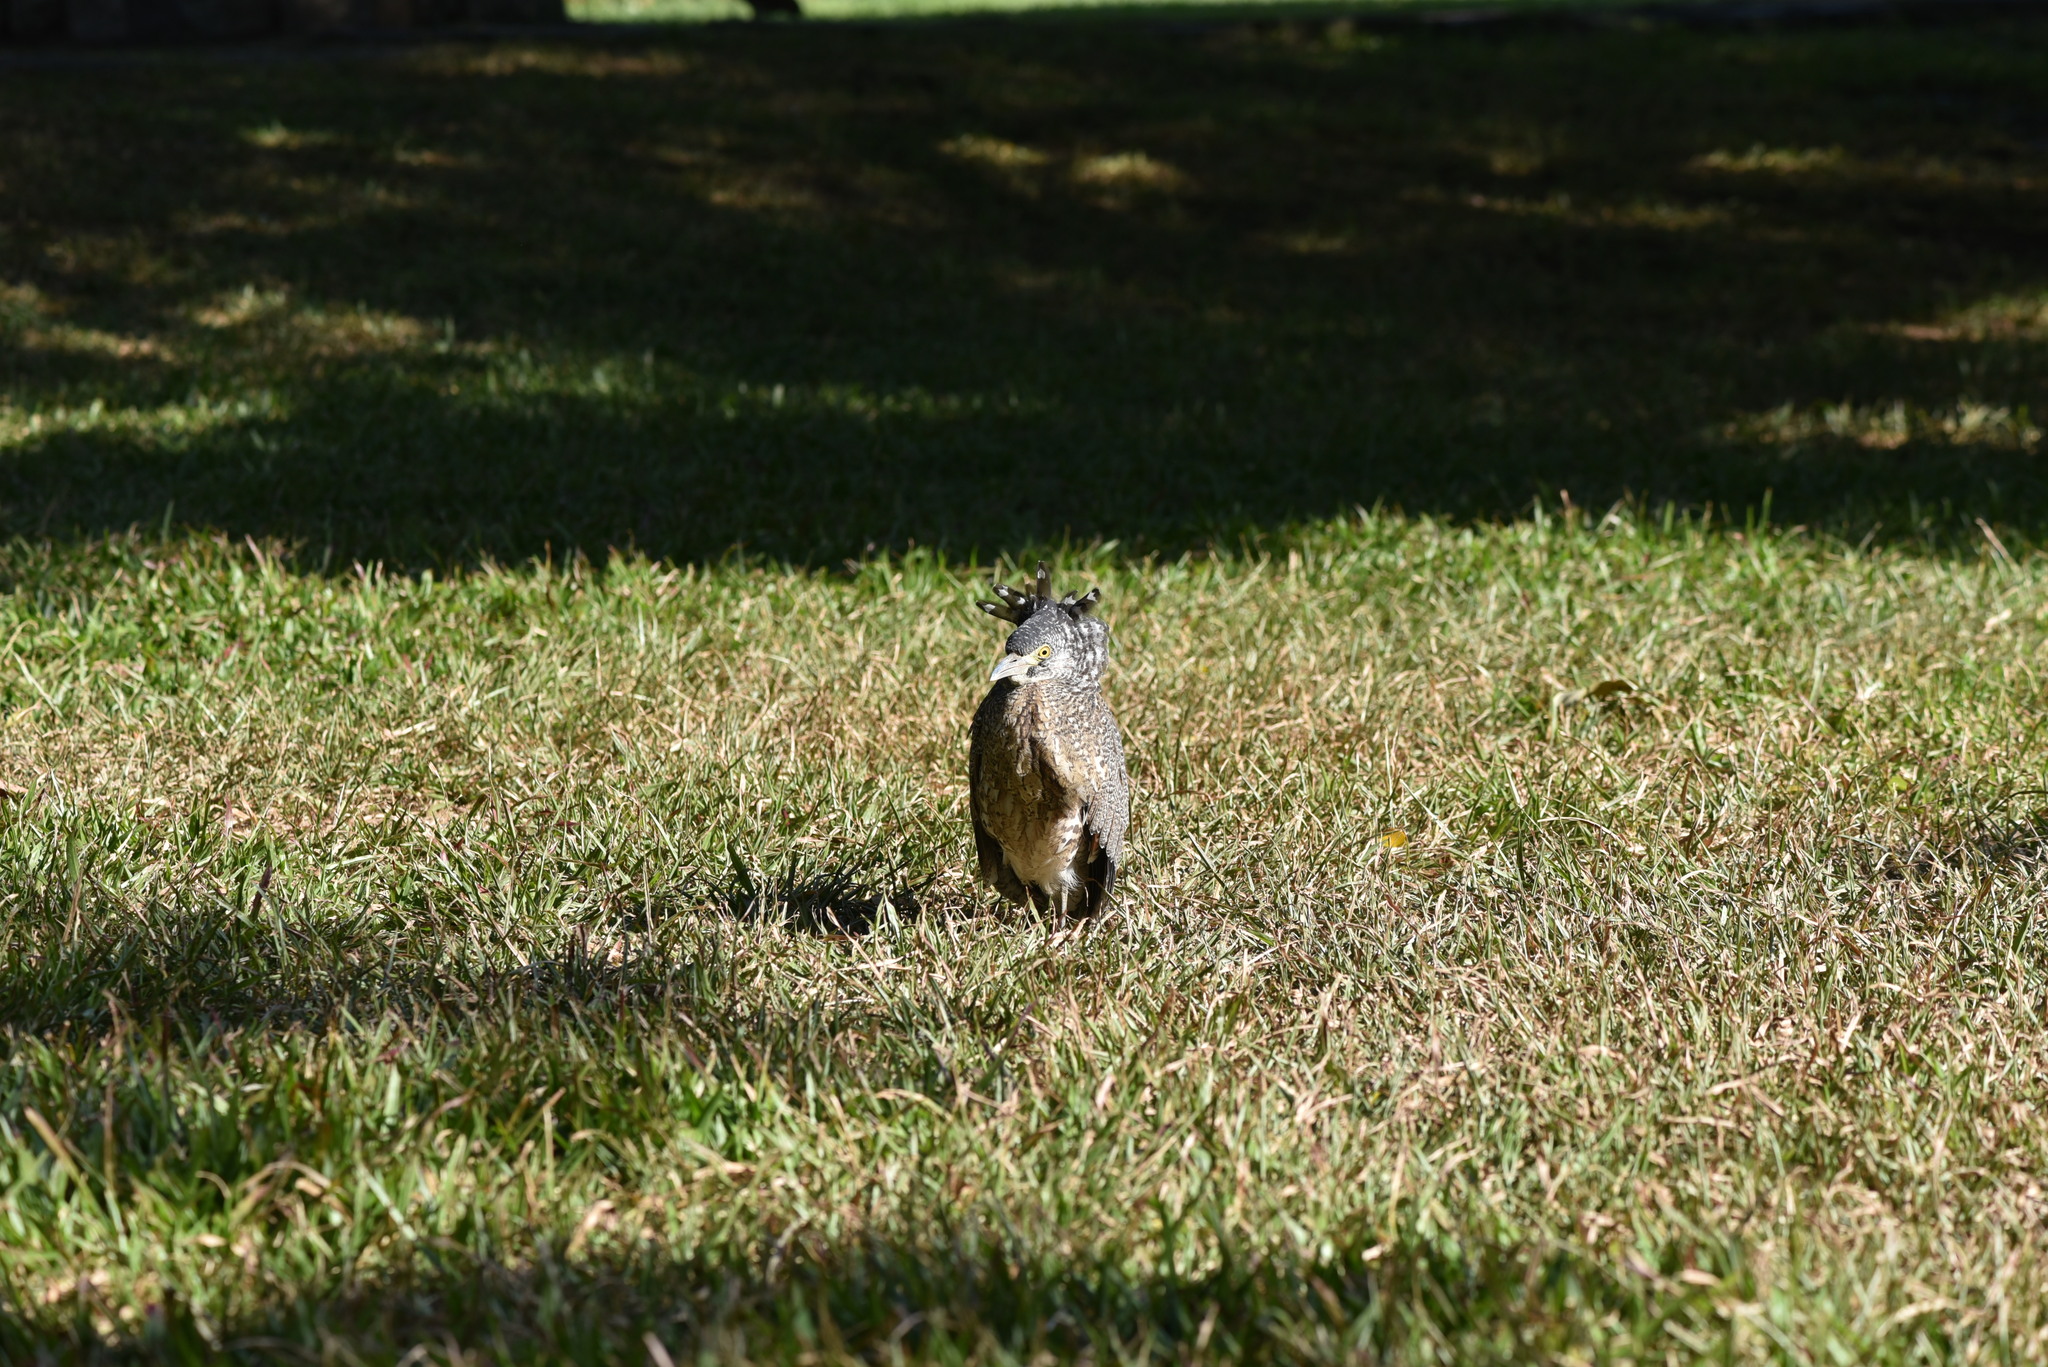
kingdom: Animalia
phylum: Chordata
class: Aves
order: Pelecaniformes
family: Ardeidae
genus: Gorsachius
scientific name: Gorsachius melanolophus
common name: Malayan night heron
